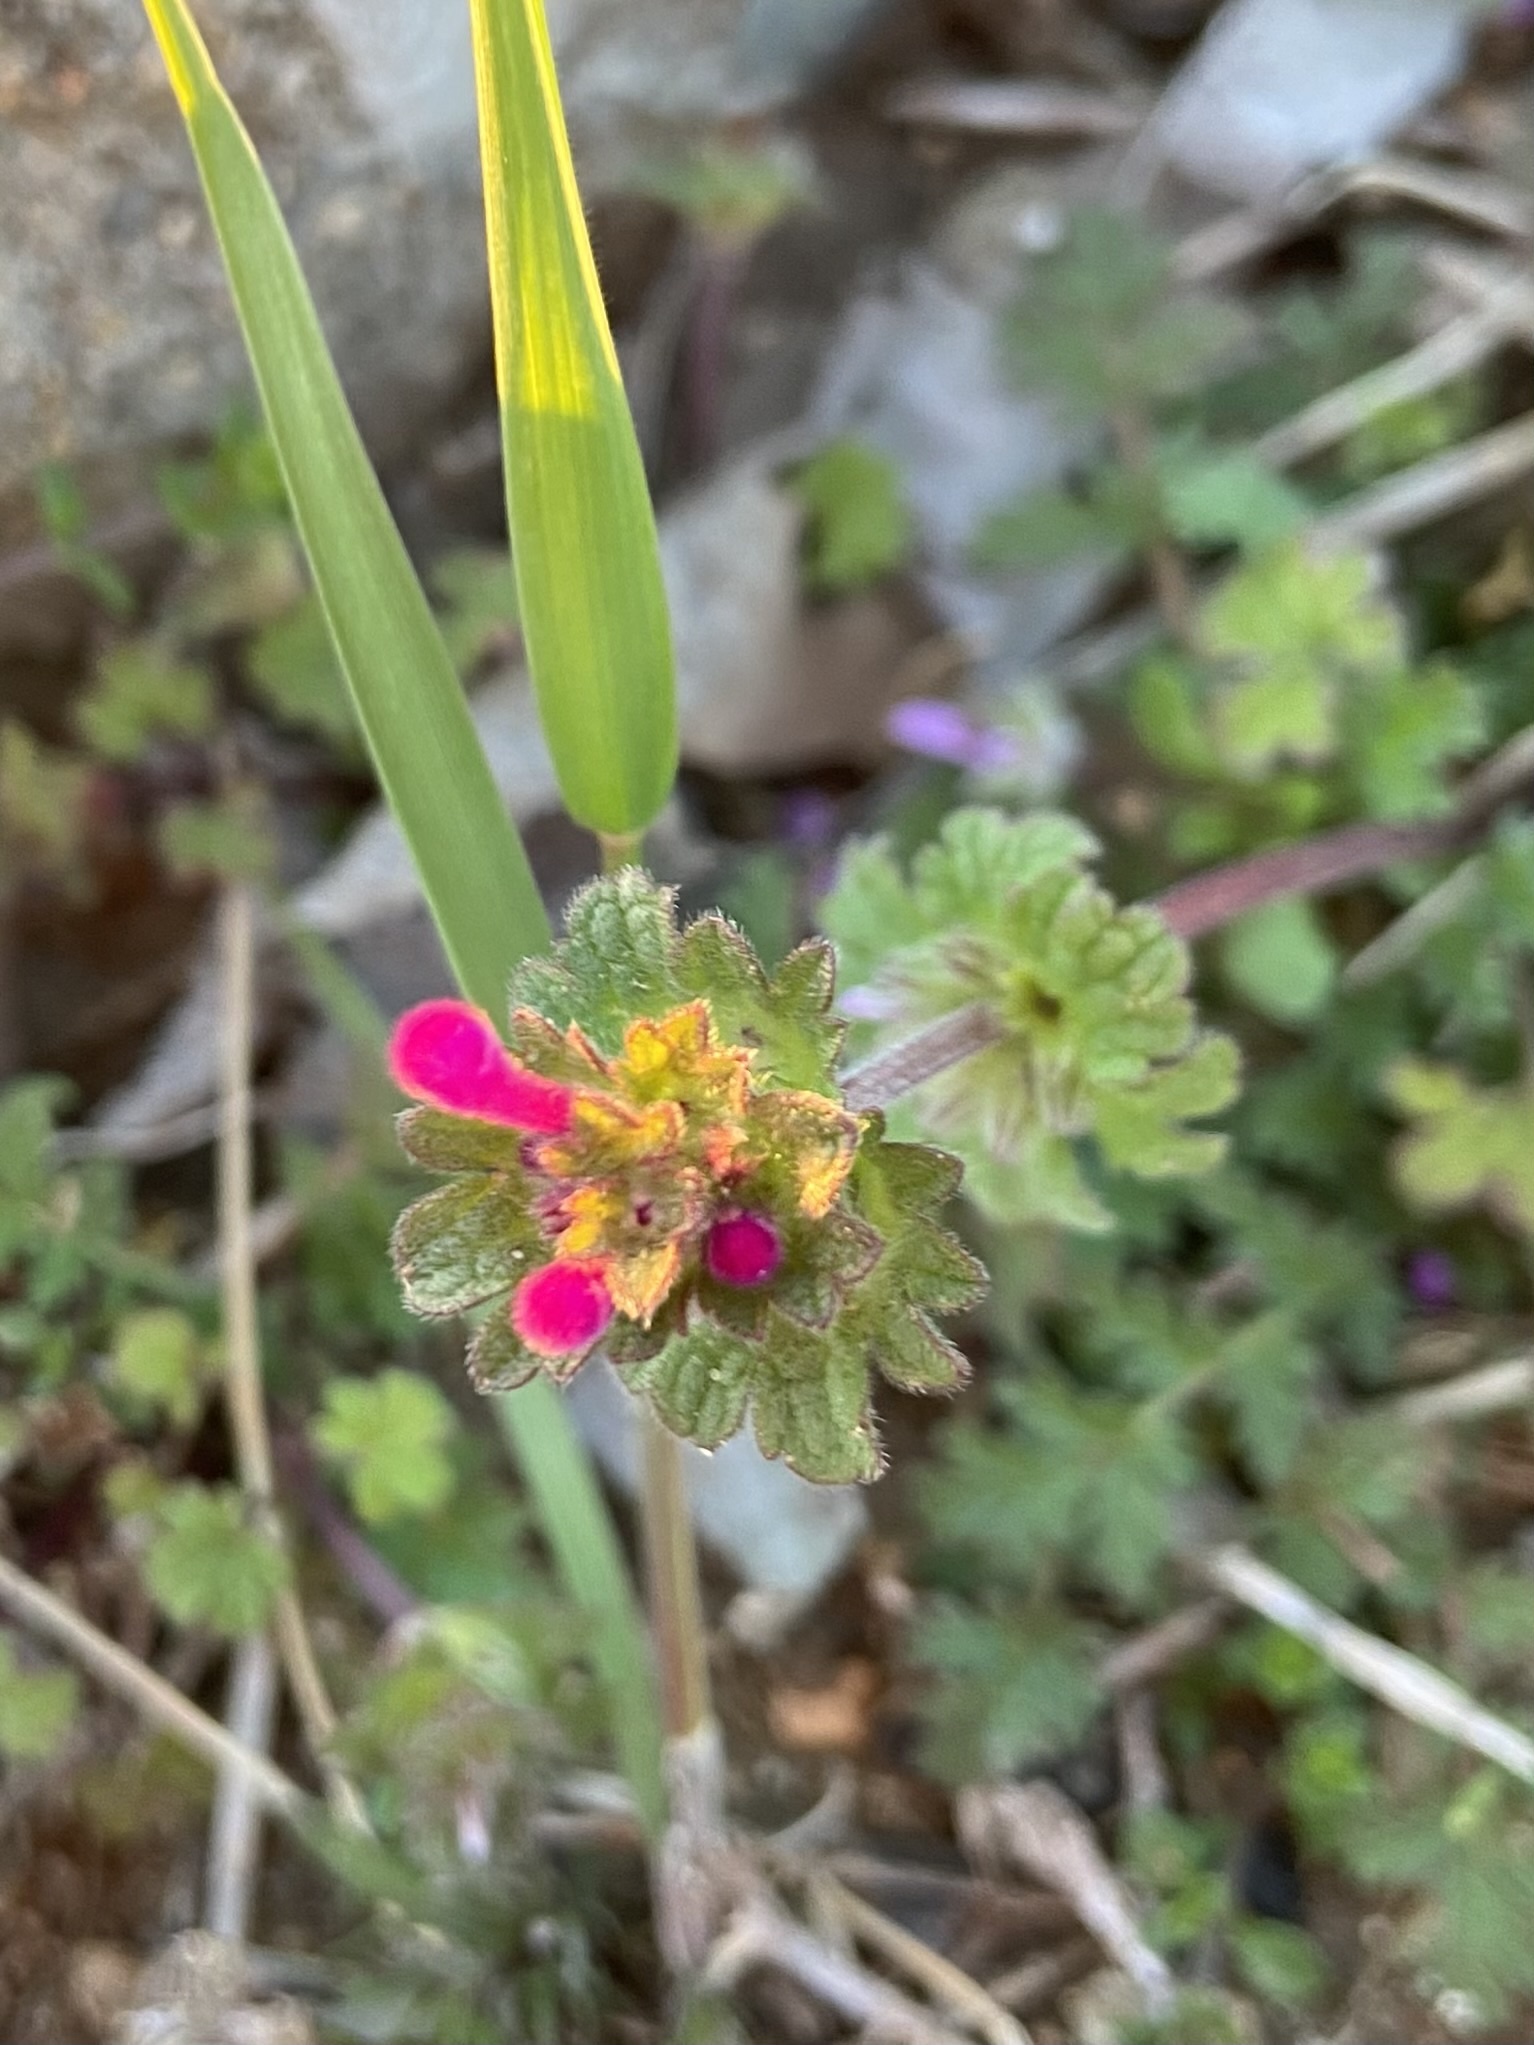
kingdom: Plantae
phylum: Tracheophyta
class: Magnoliopsida
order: Lamiales
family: Lamiaceae
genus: Lamium
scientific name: Lamium amplexicaule
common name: Henbit dead-nettle
